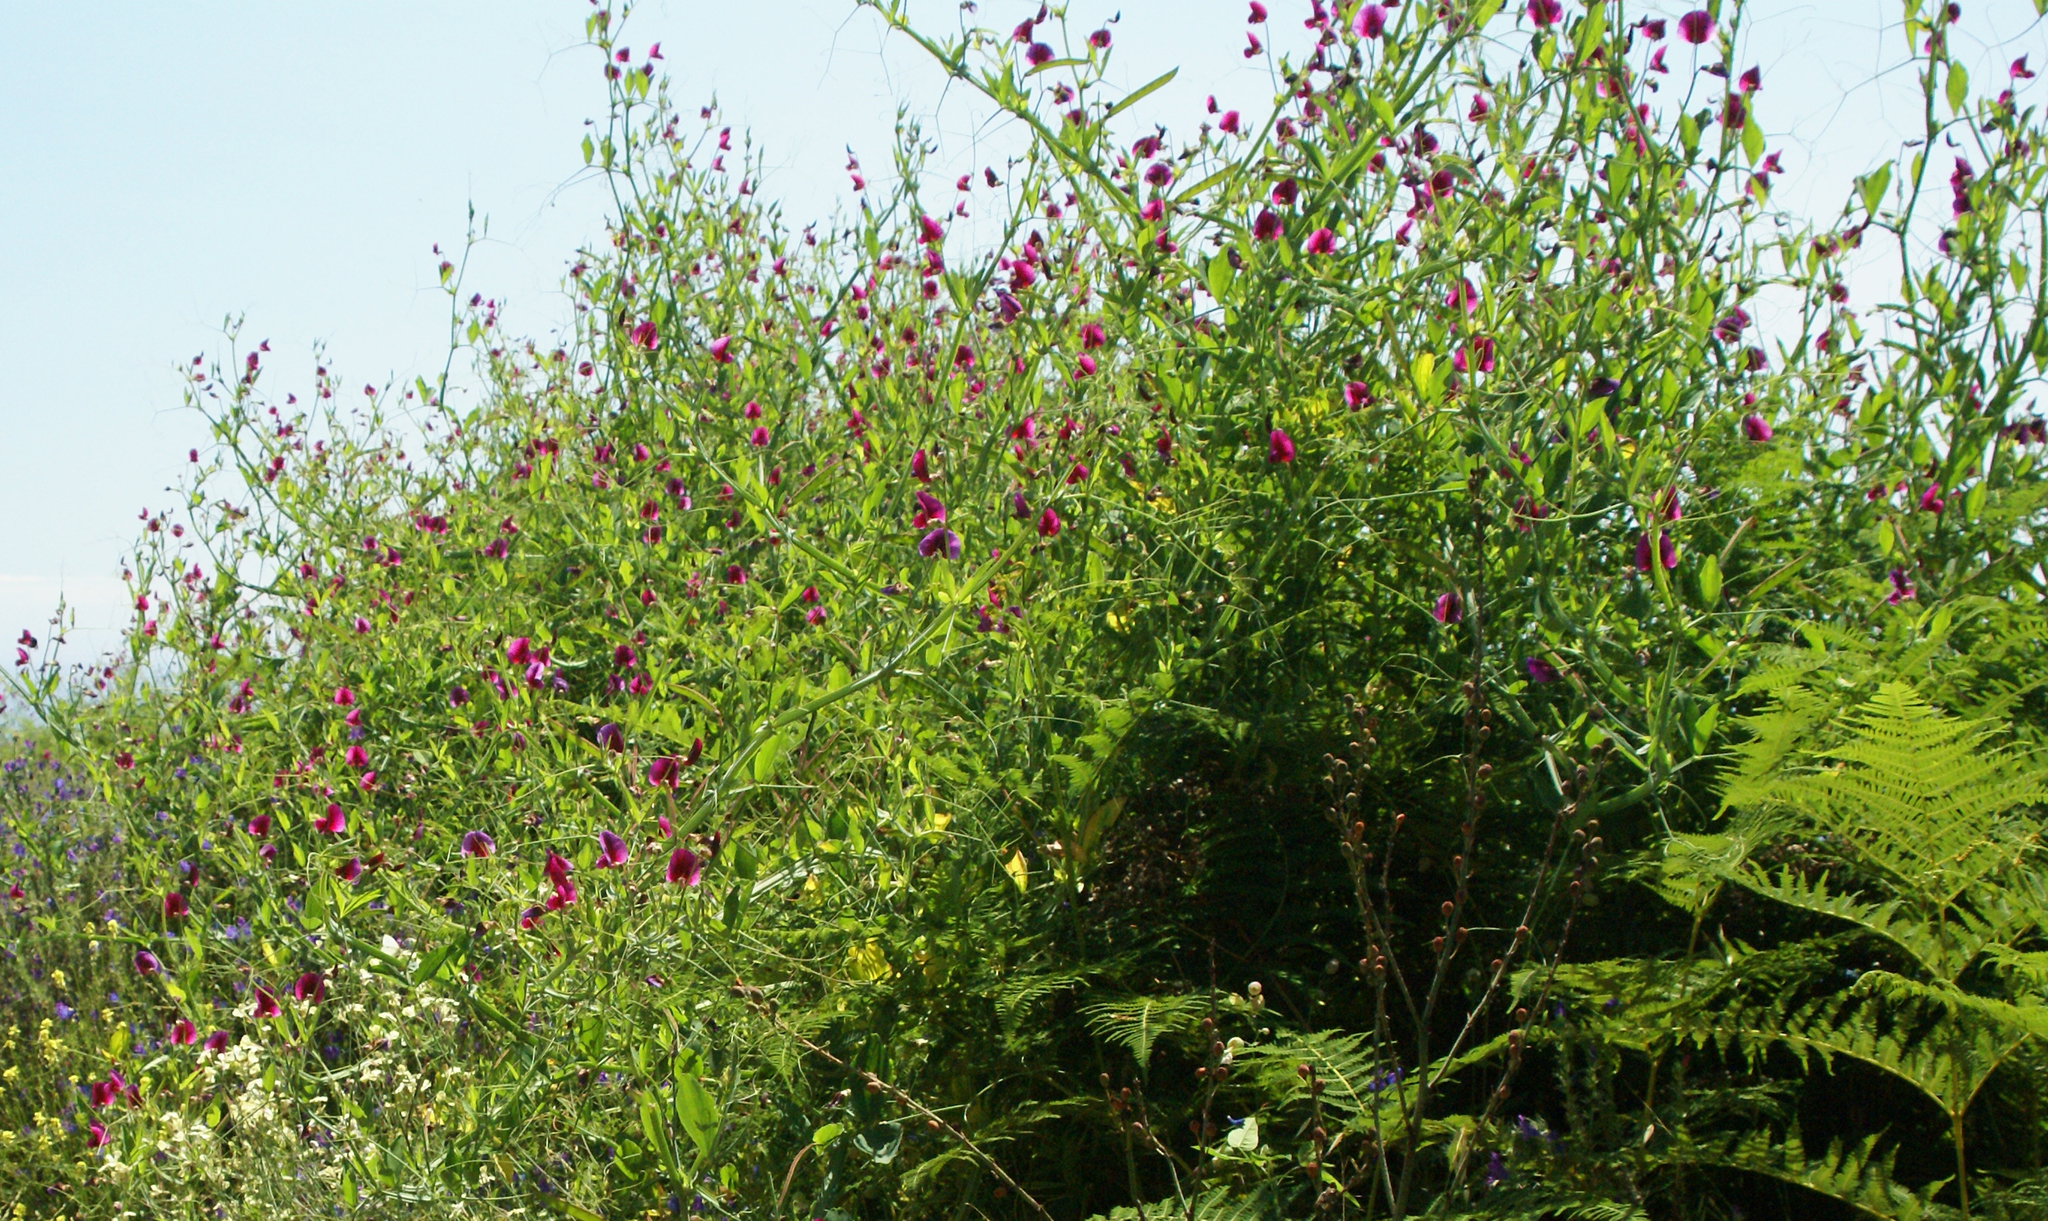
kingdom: Plantae
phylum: Tracheophyta
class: Magnoliopsida
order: Fabales
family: Fabaceae
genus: Lathyrus
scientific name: Lathyrus tingitanus
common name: Tangier pea
